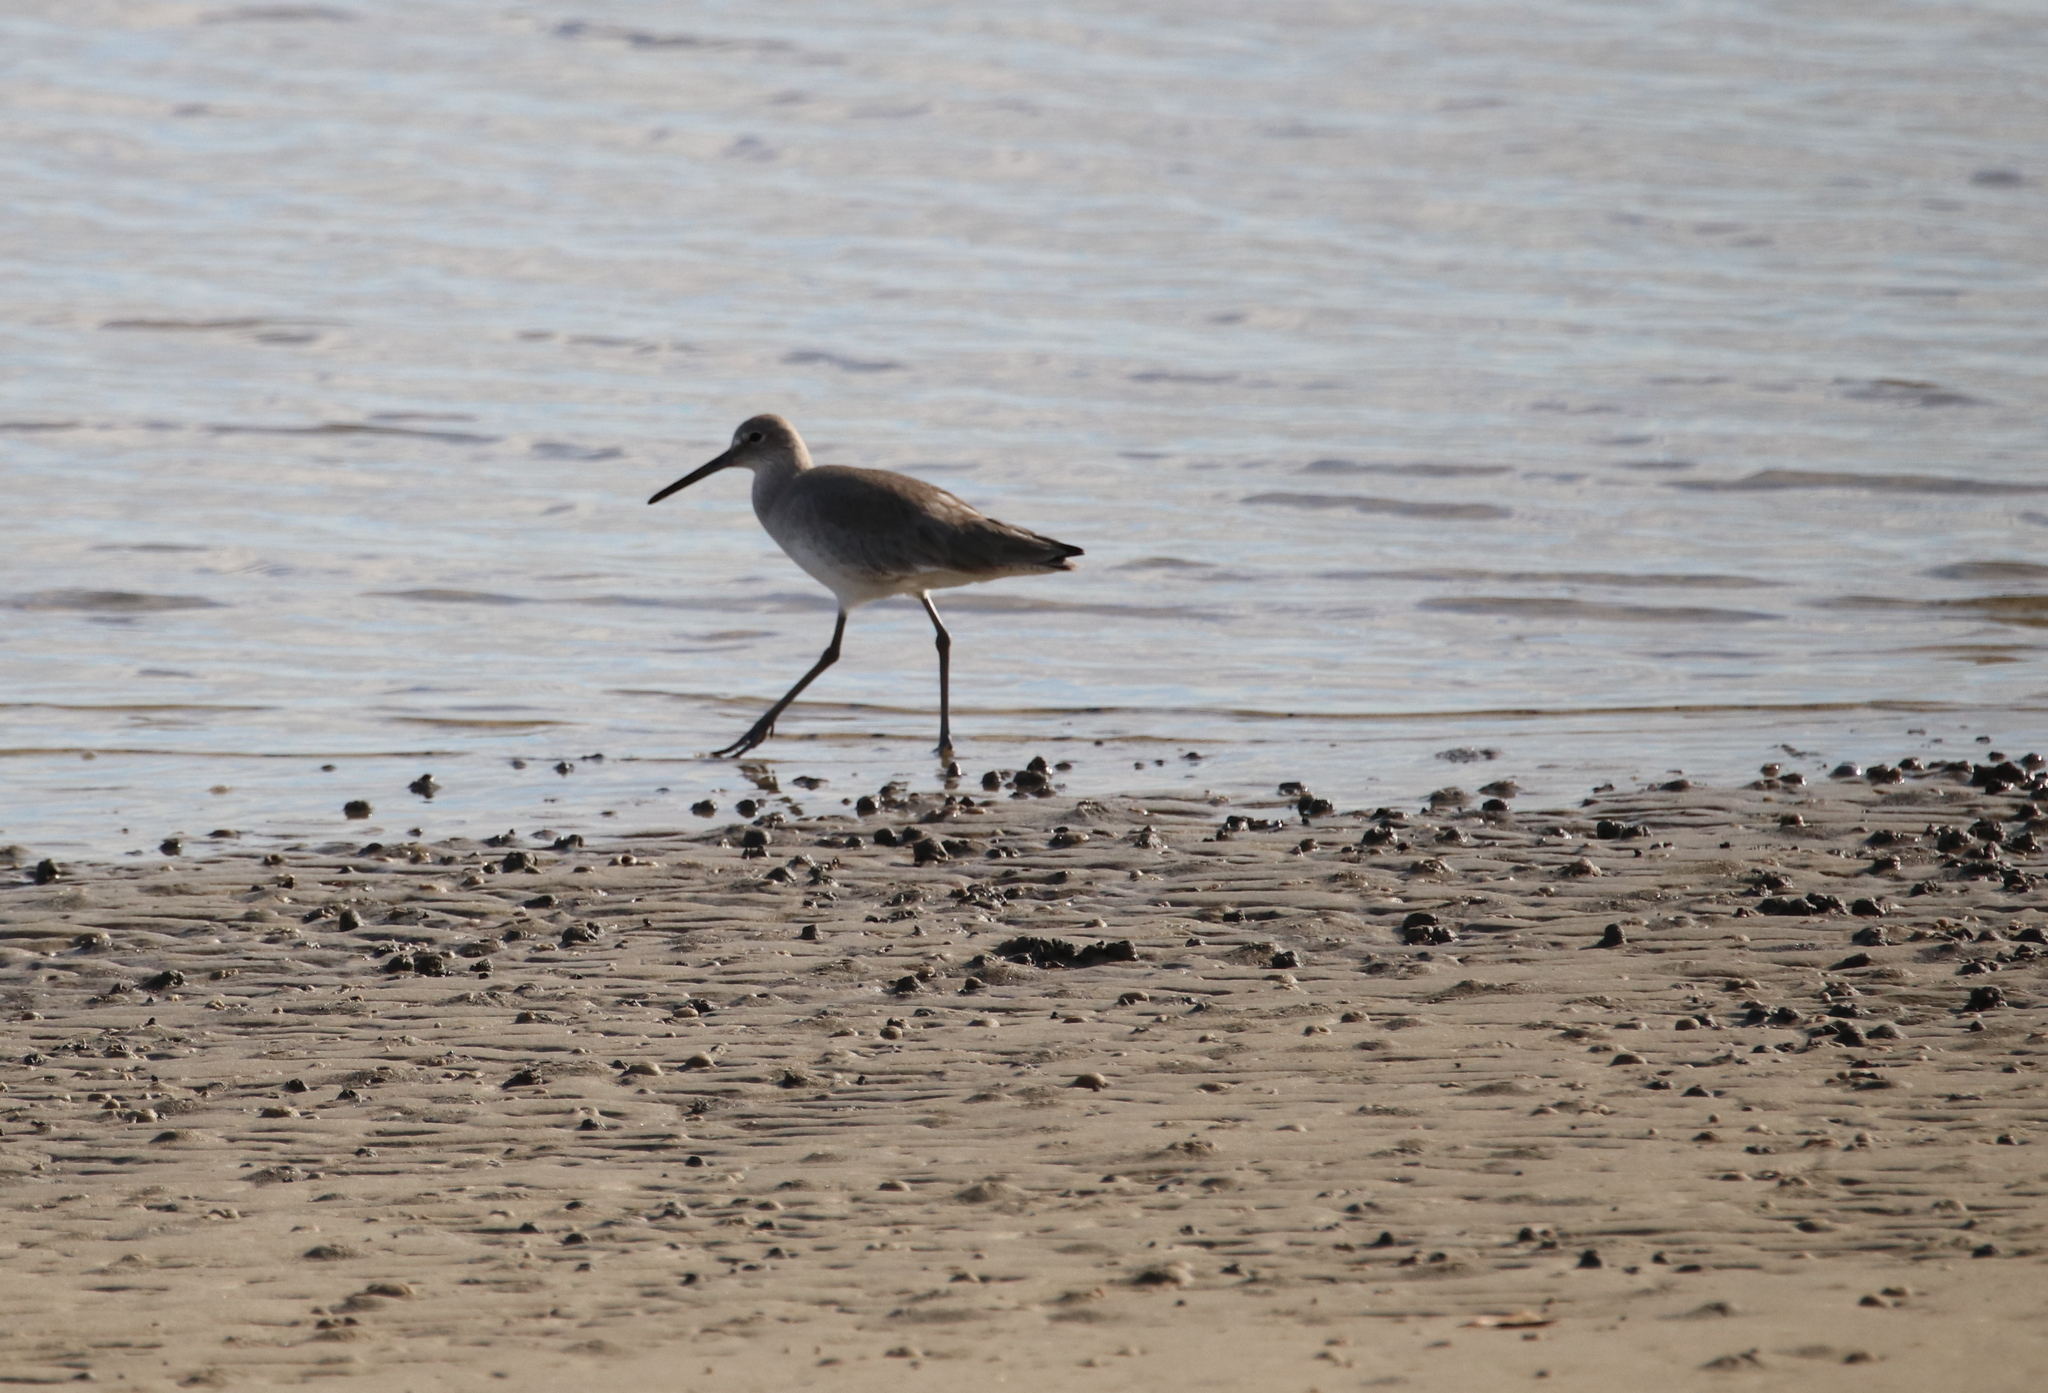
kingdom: Animalia
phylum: Chordata
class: Aves
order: Charadriiformes
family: Scolopacidae
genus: Tringa
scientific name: Tringa semipalmata
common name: Willet
